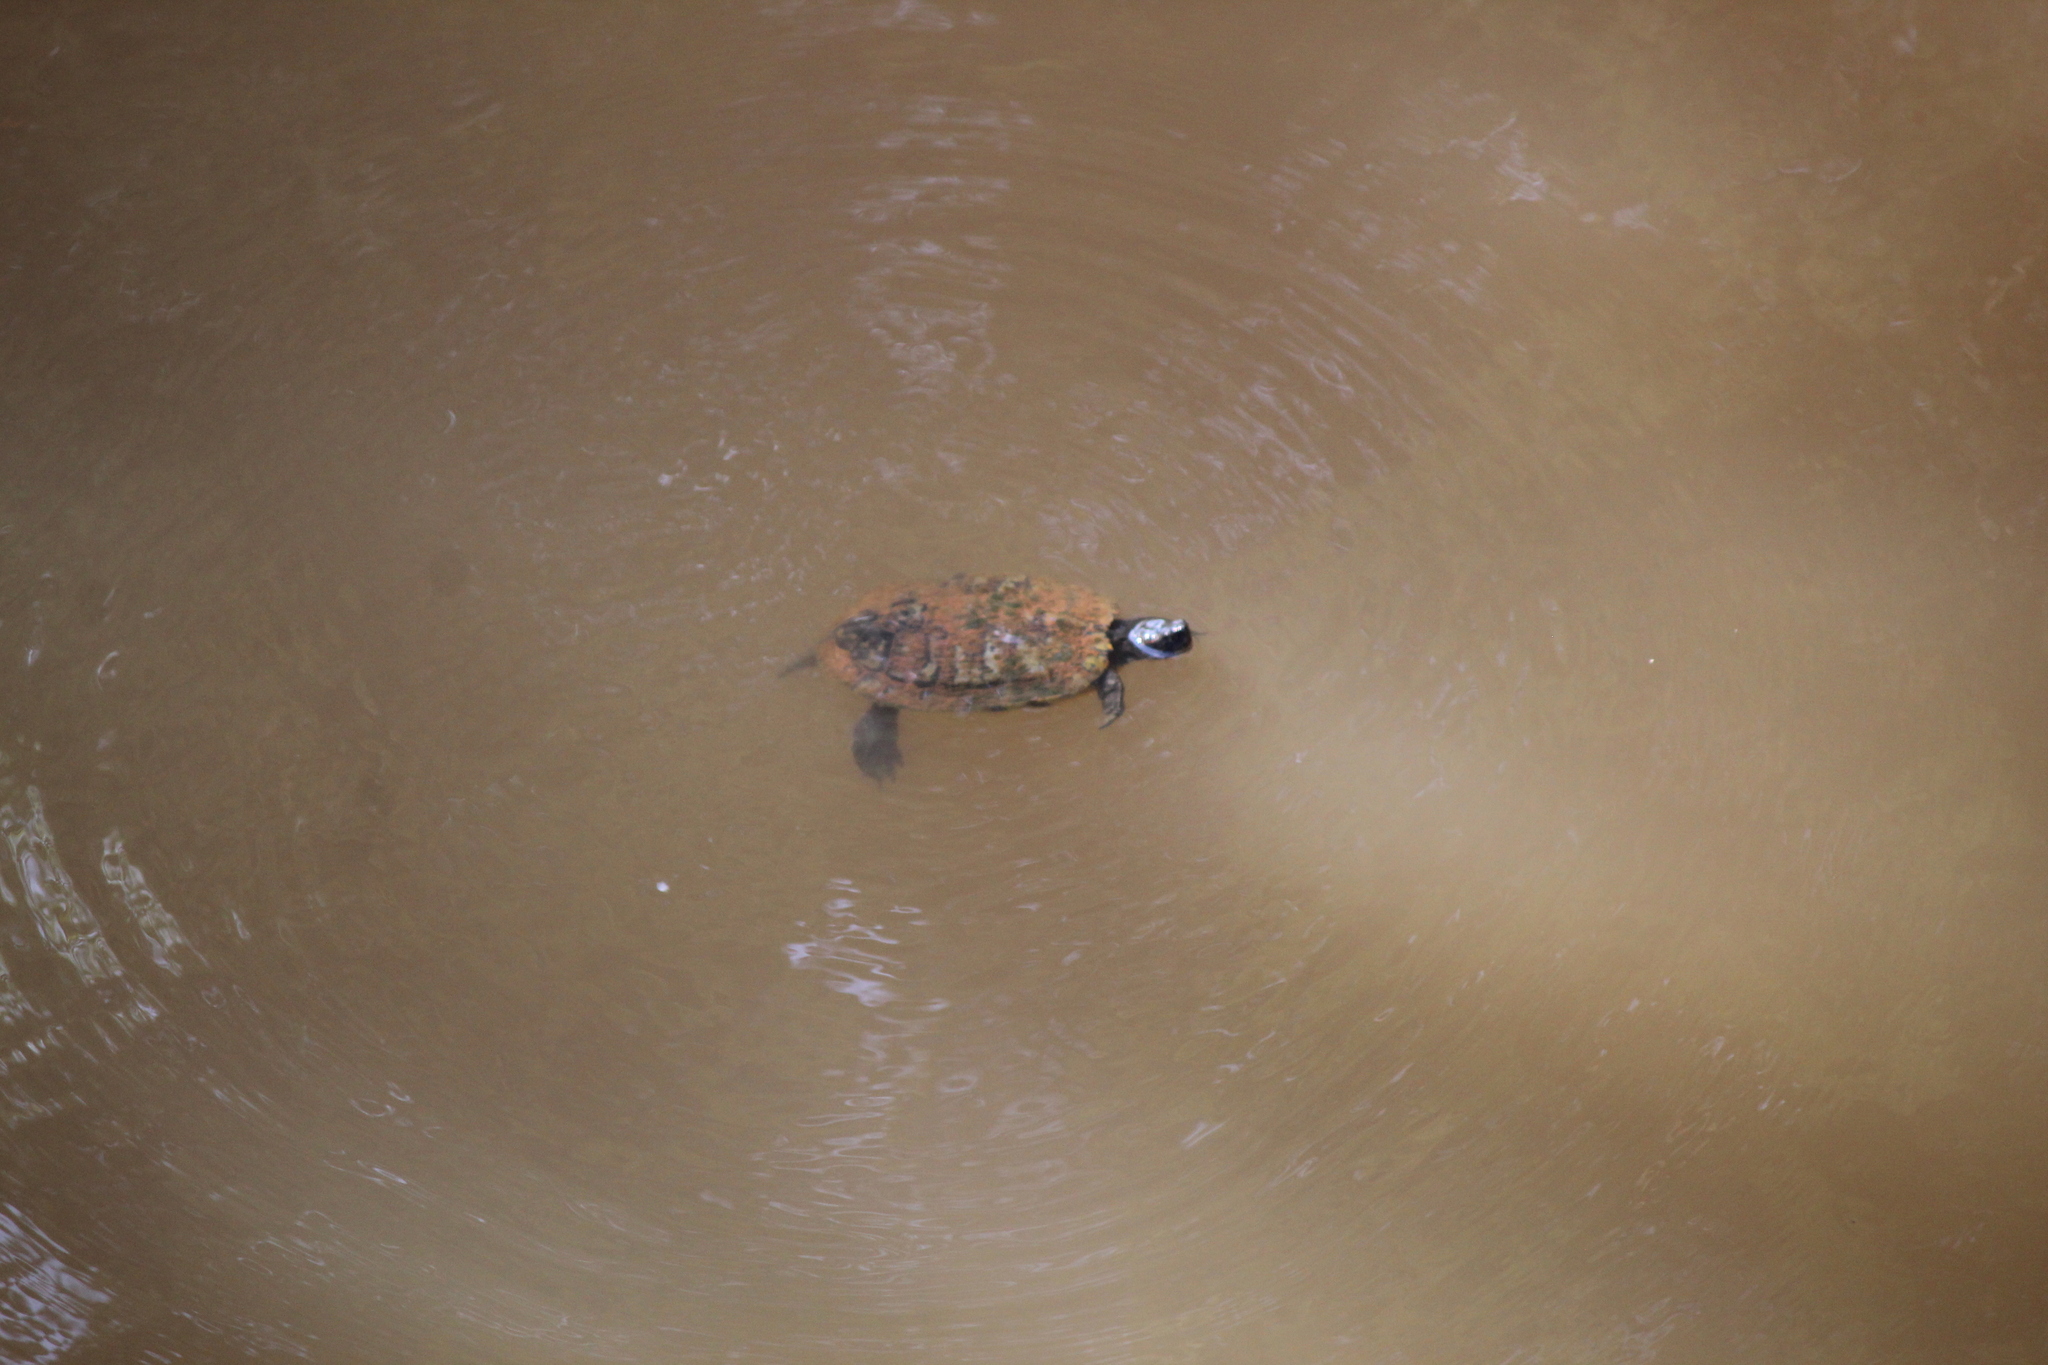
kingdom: Animalia
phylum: Chordata
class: Testudines
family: Emydidae
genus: Trachemys
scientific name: Trachemys scripta
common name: Slider
